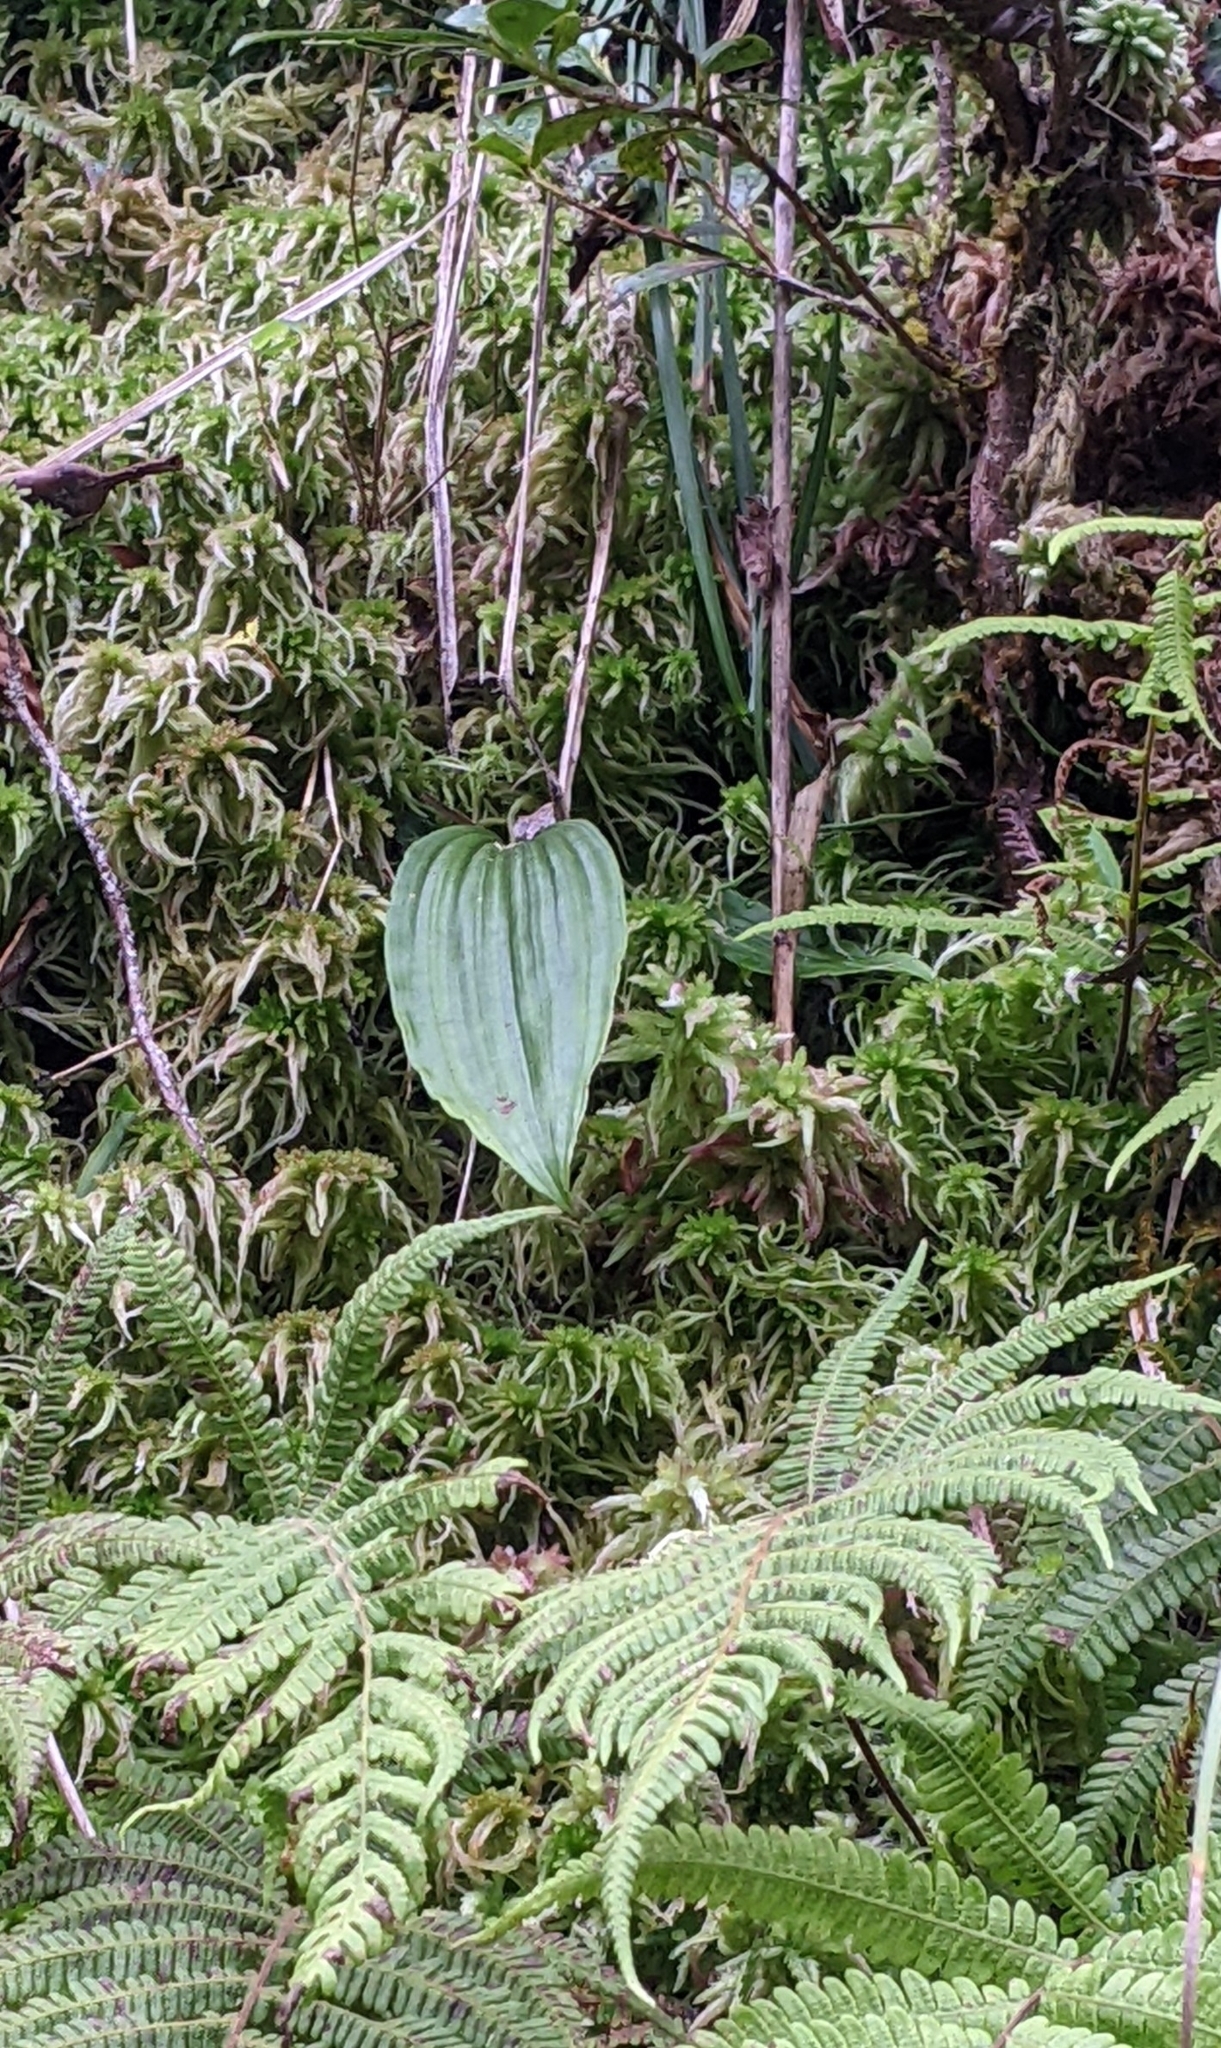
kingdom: Plantae
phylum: Tracheophyta
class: Liliopsida
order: Asparagales
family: Orchidaceae
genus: Pleione
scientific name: Pleione formosana
